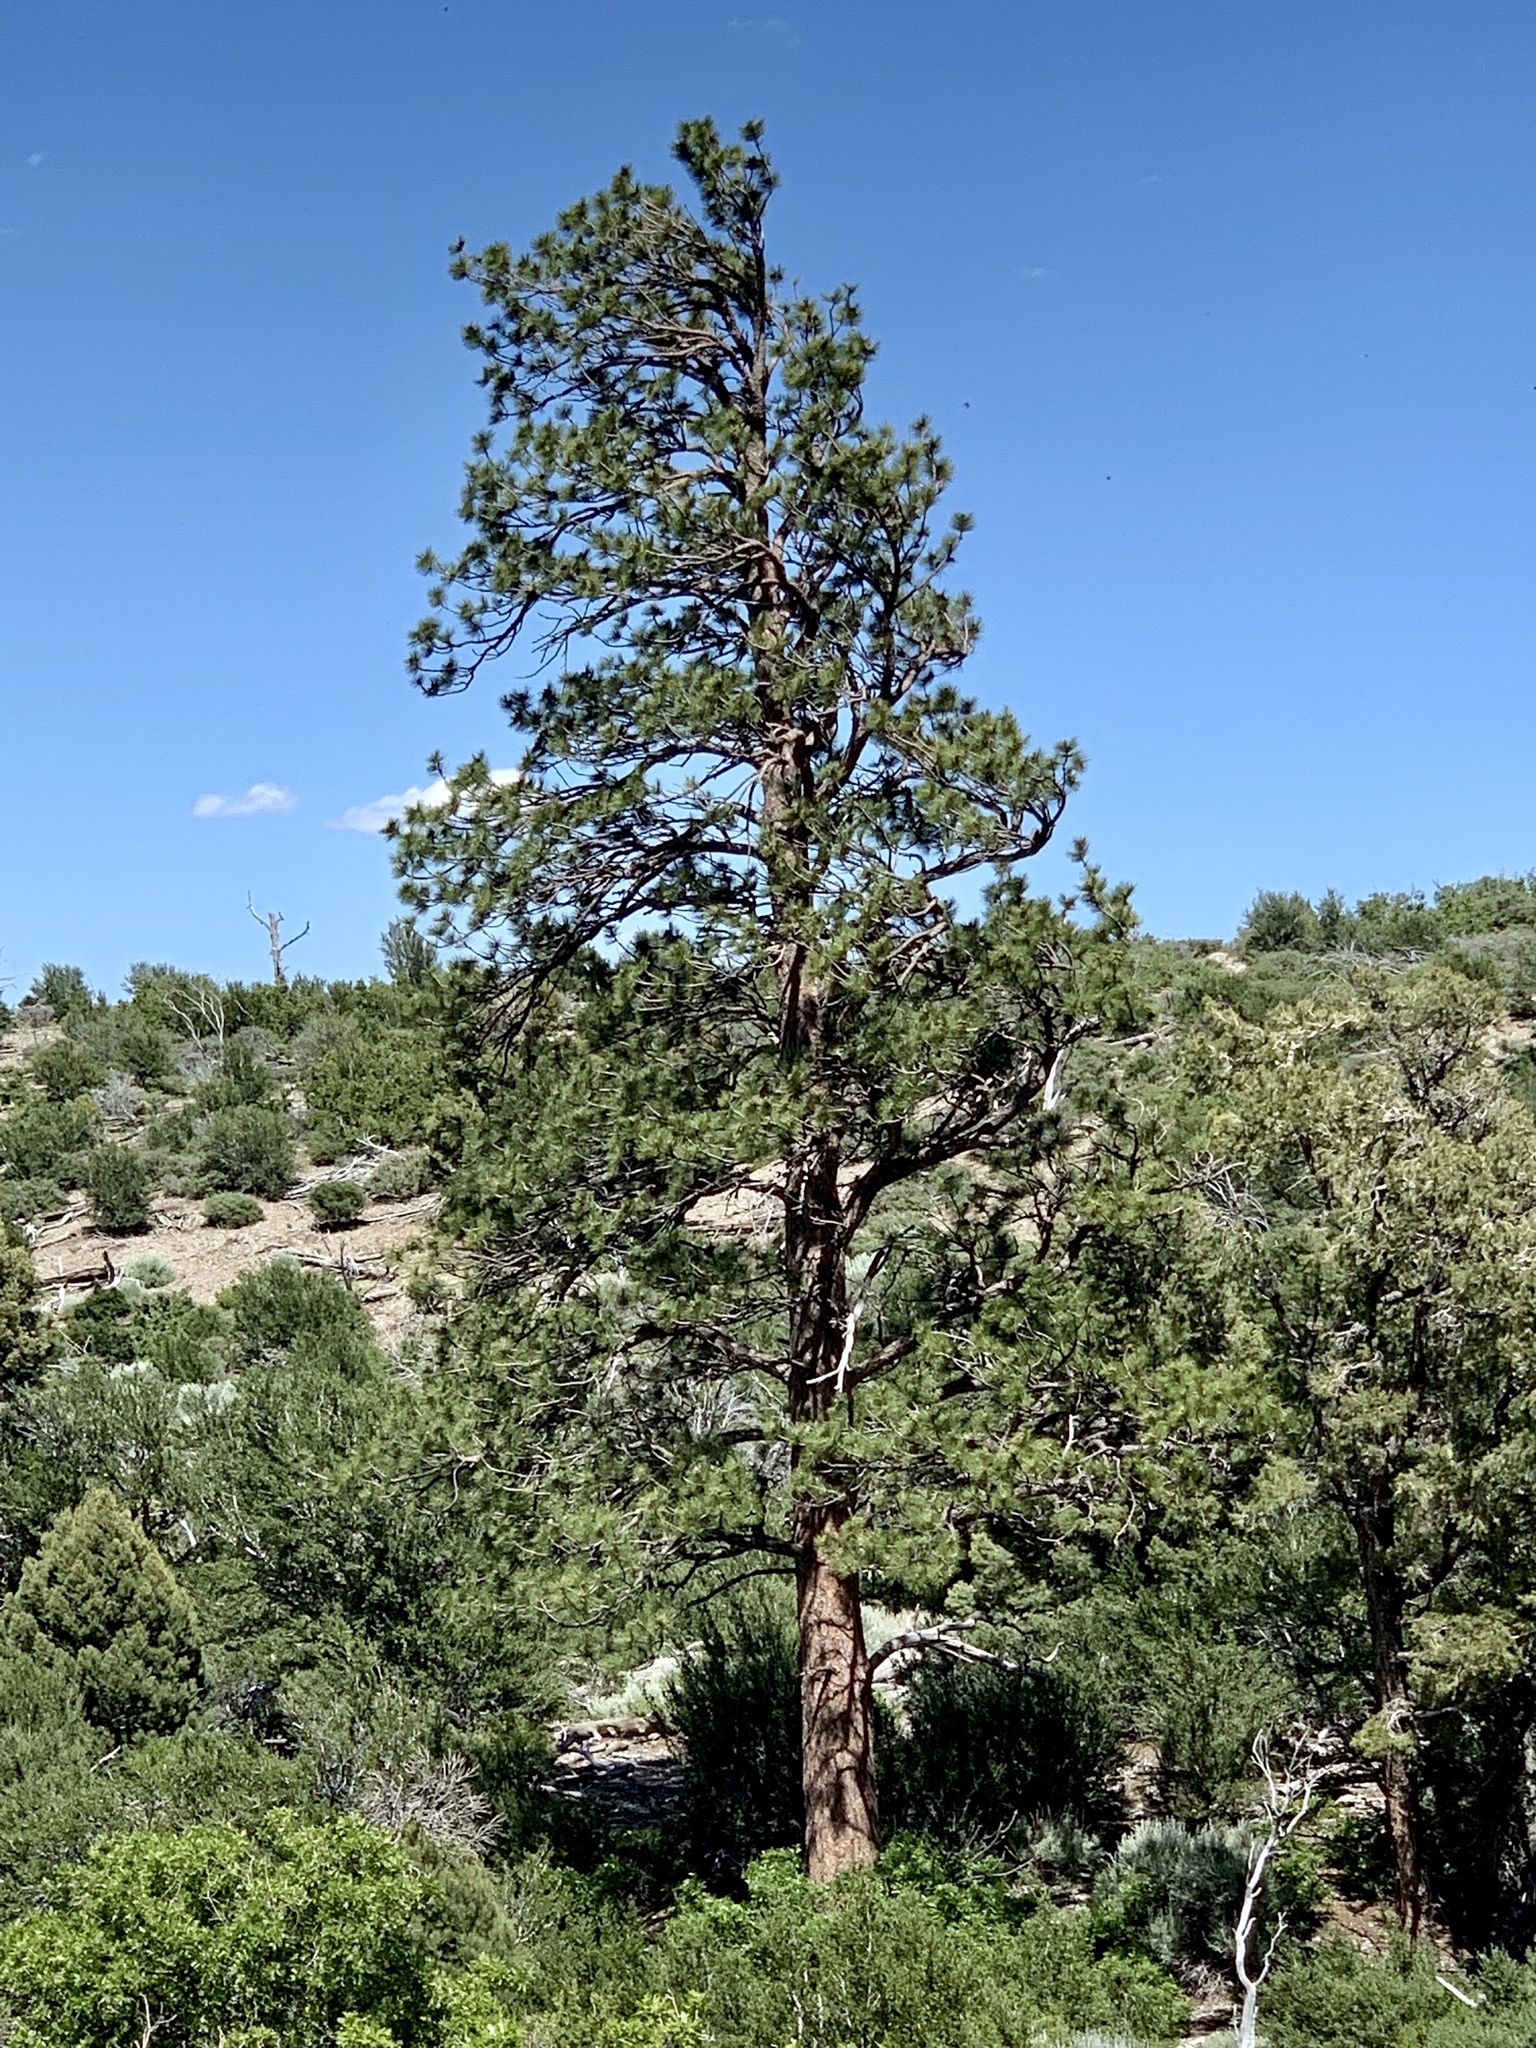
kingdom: Plantae
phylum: Tracheophyta
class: Pinopsida
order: Pinales
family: Pinaceae
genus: Pinus
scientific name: Pinus ponderosa
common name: Western yellow-pine
